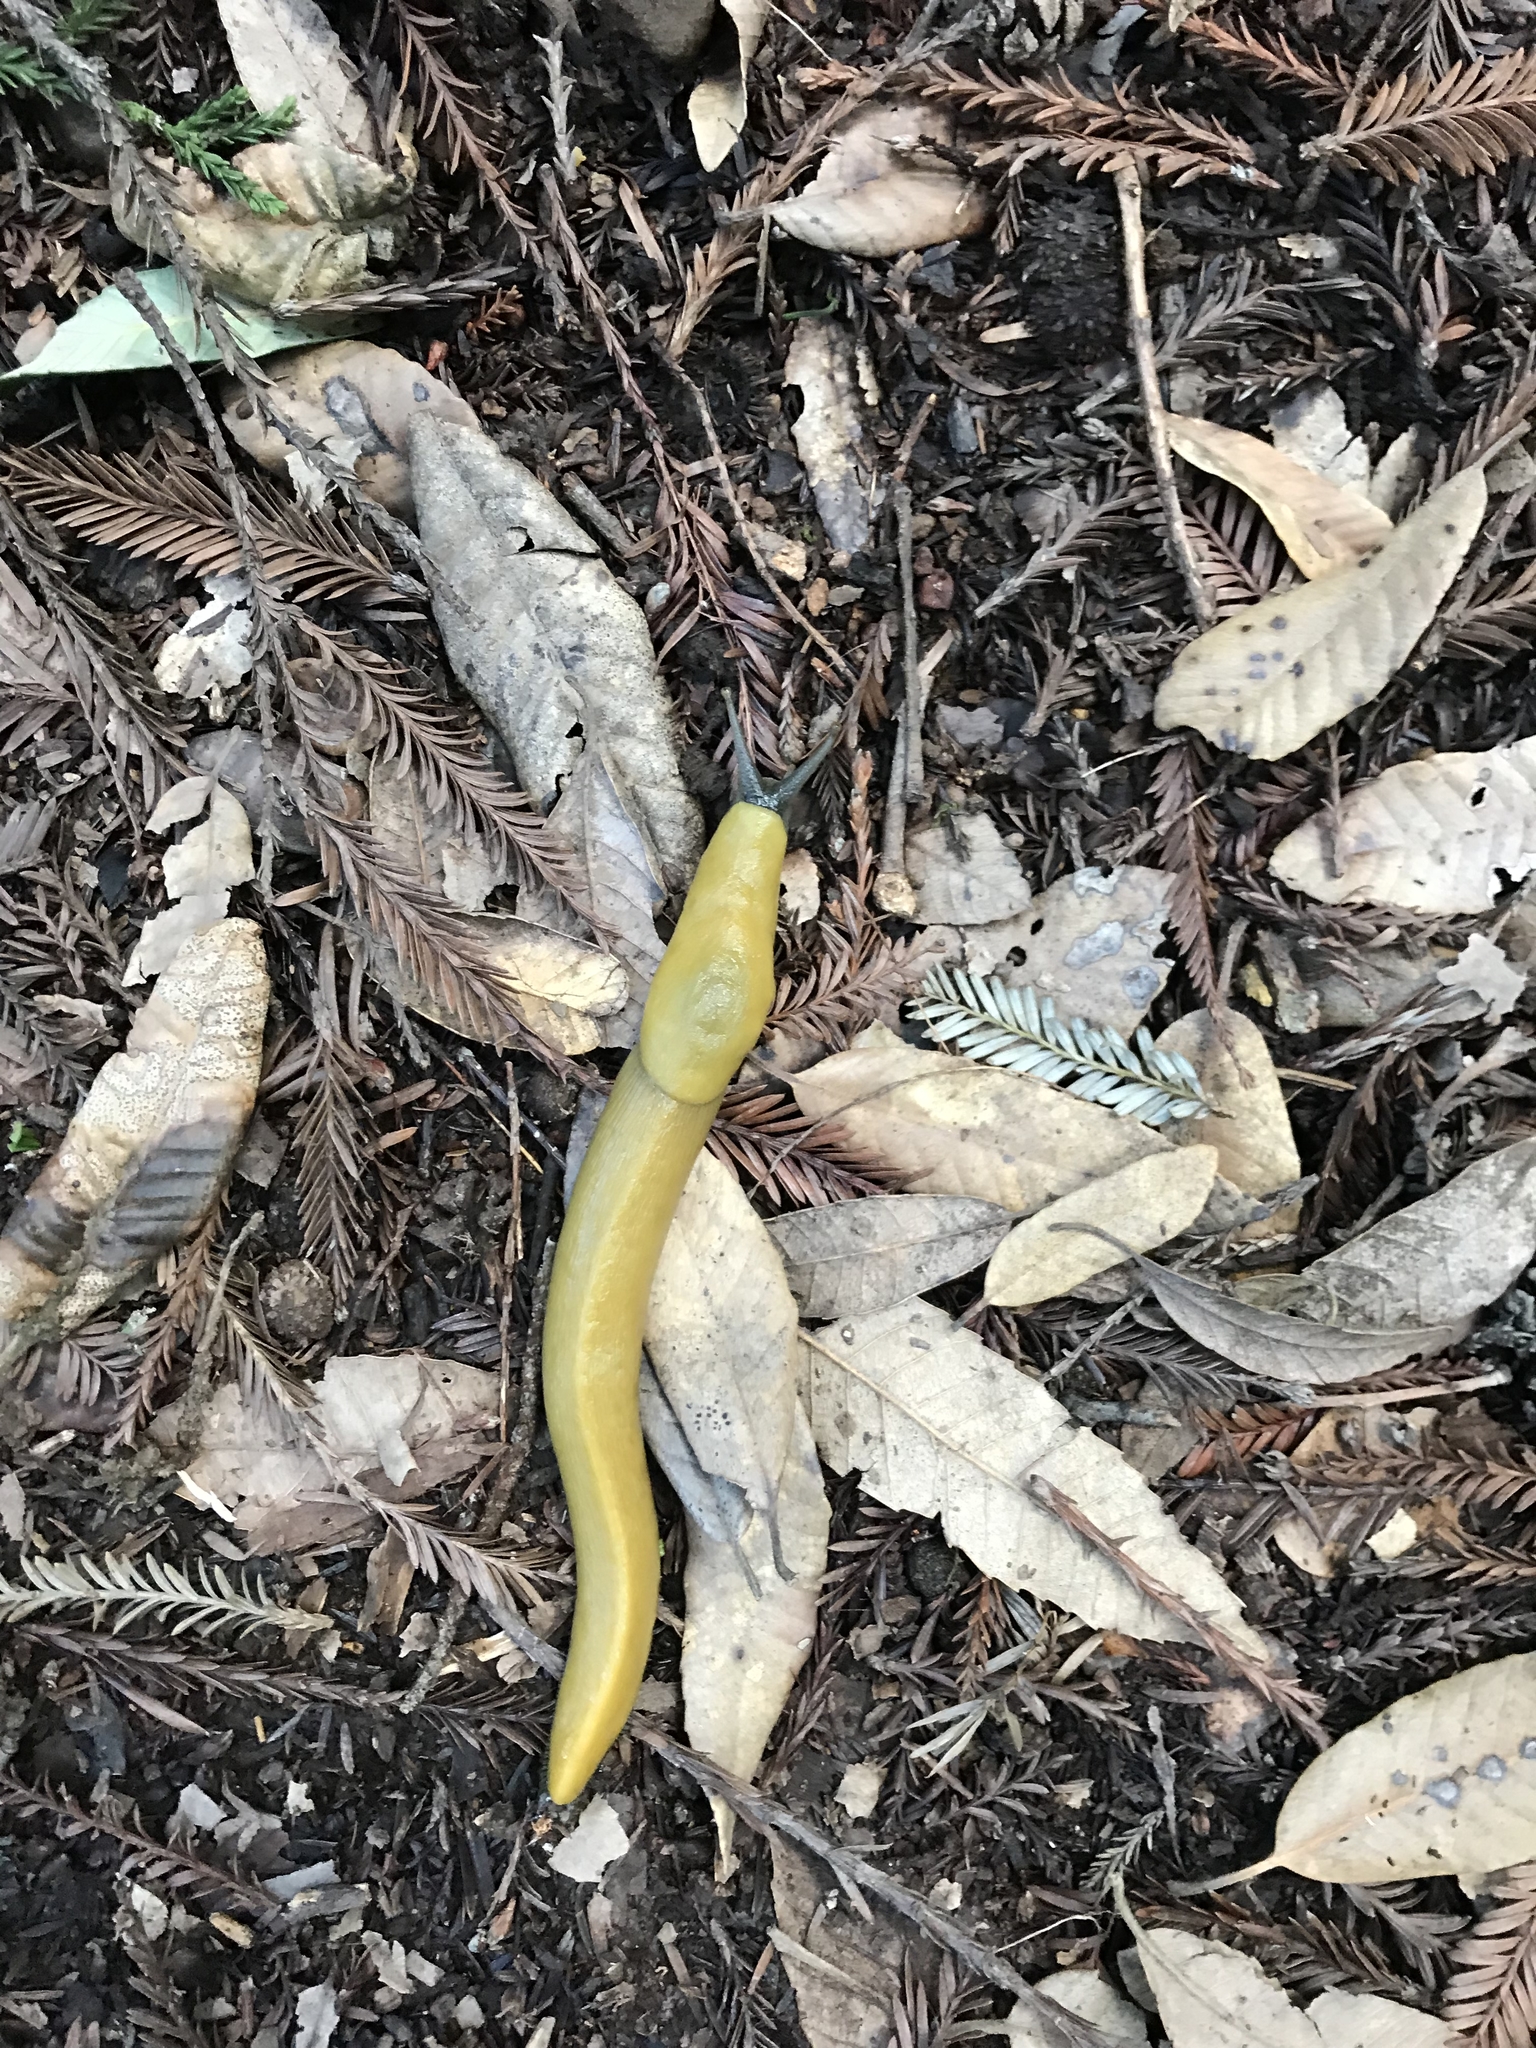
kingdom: Animalia
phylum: Mollusca
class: Gastropoda
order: Stylommatophora
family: Ariolimacidae
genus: Ariolimax
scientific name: Ariolimax
